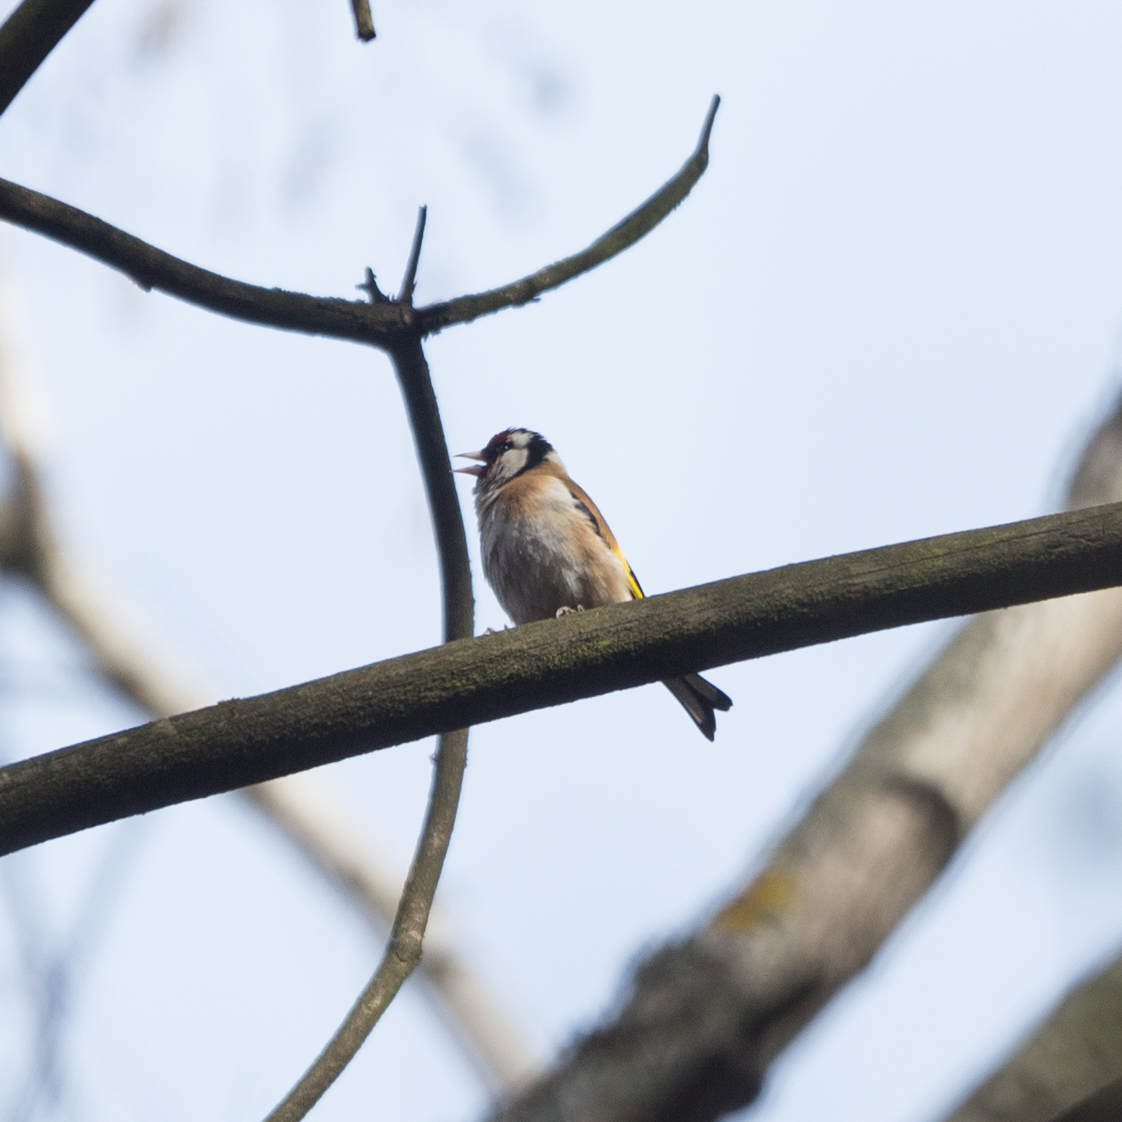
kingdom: Animalia
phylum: Chordata
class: Aves
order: Passeriformes
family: Fringillidae
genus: Carduelis
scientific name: Carduelis carduelis
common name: European goldfinch
